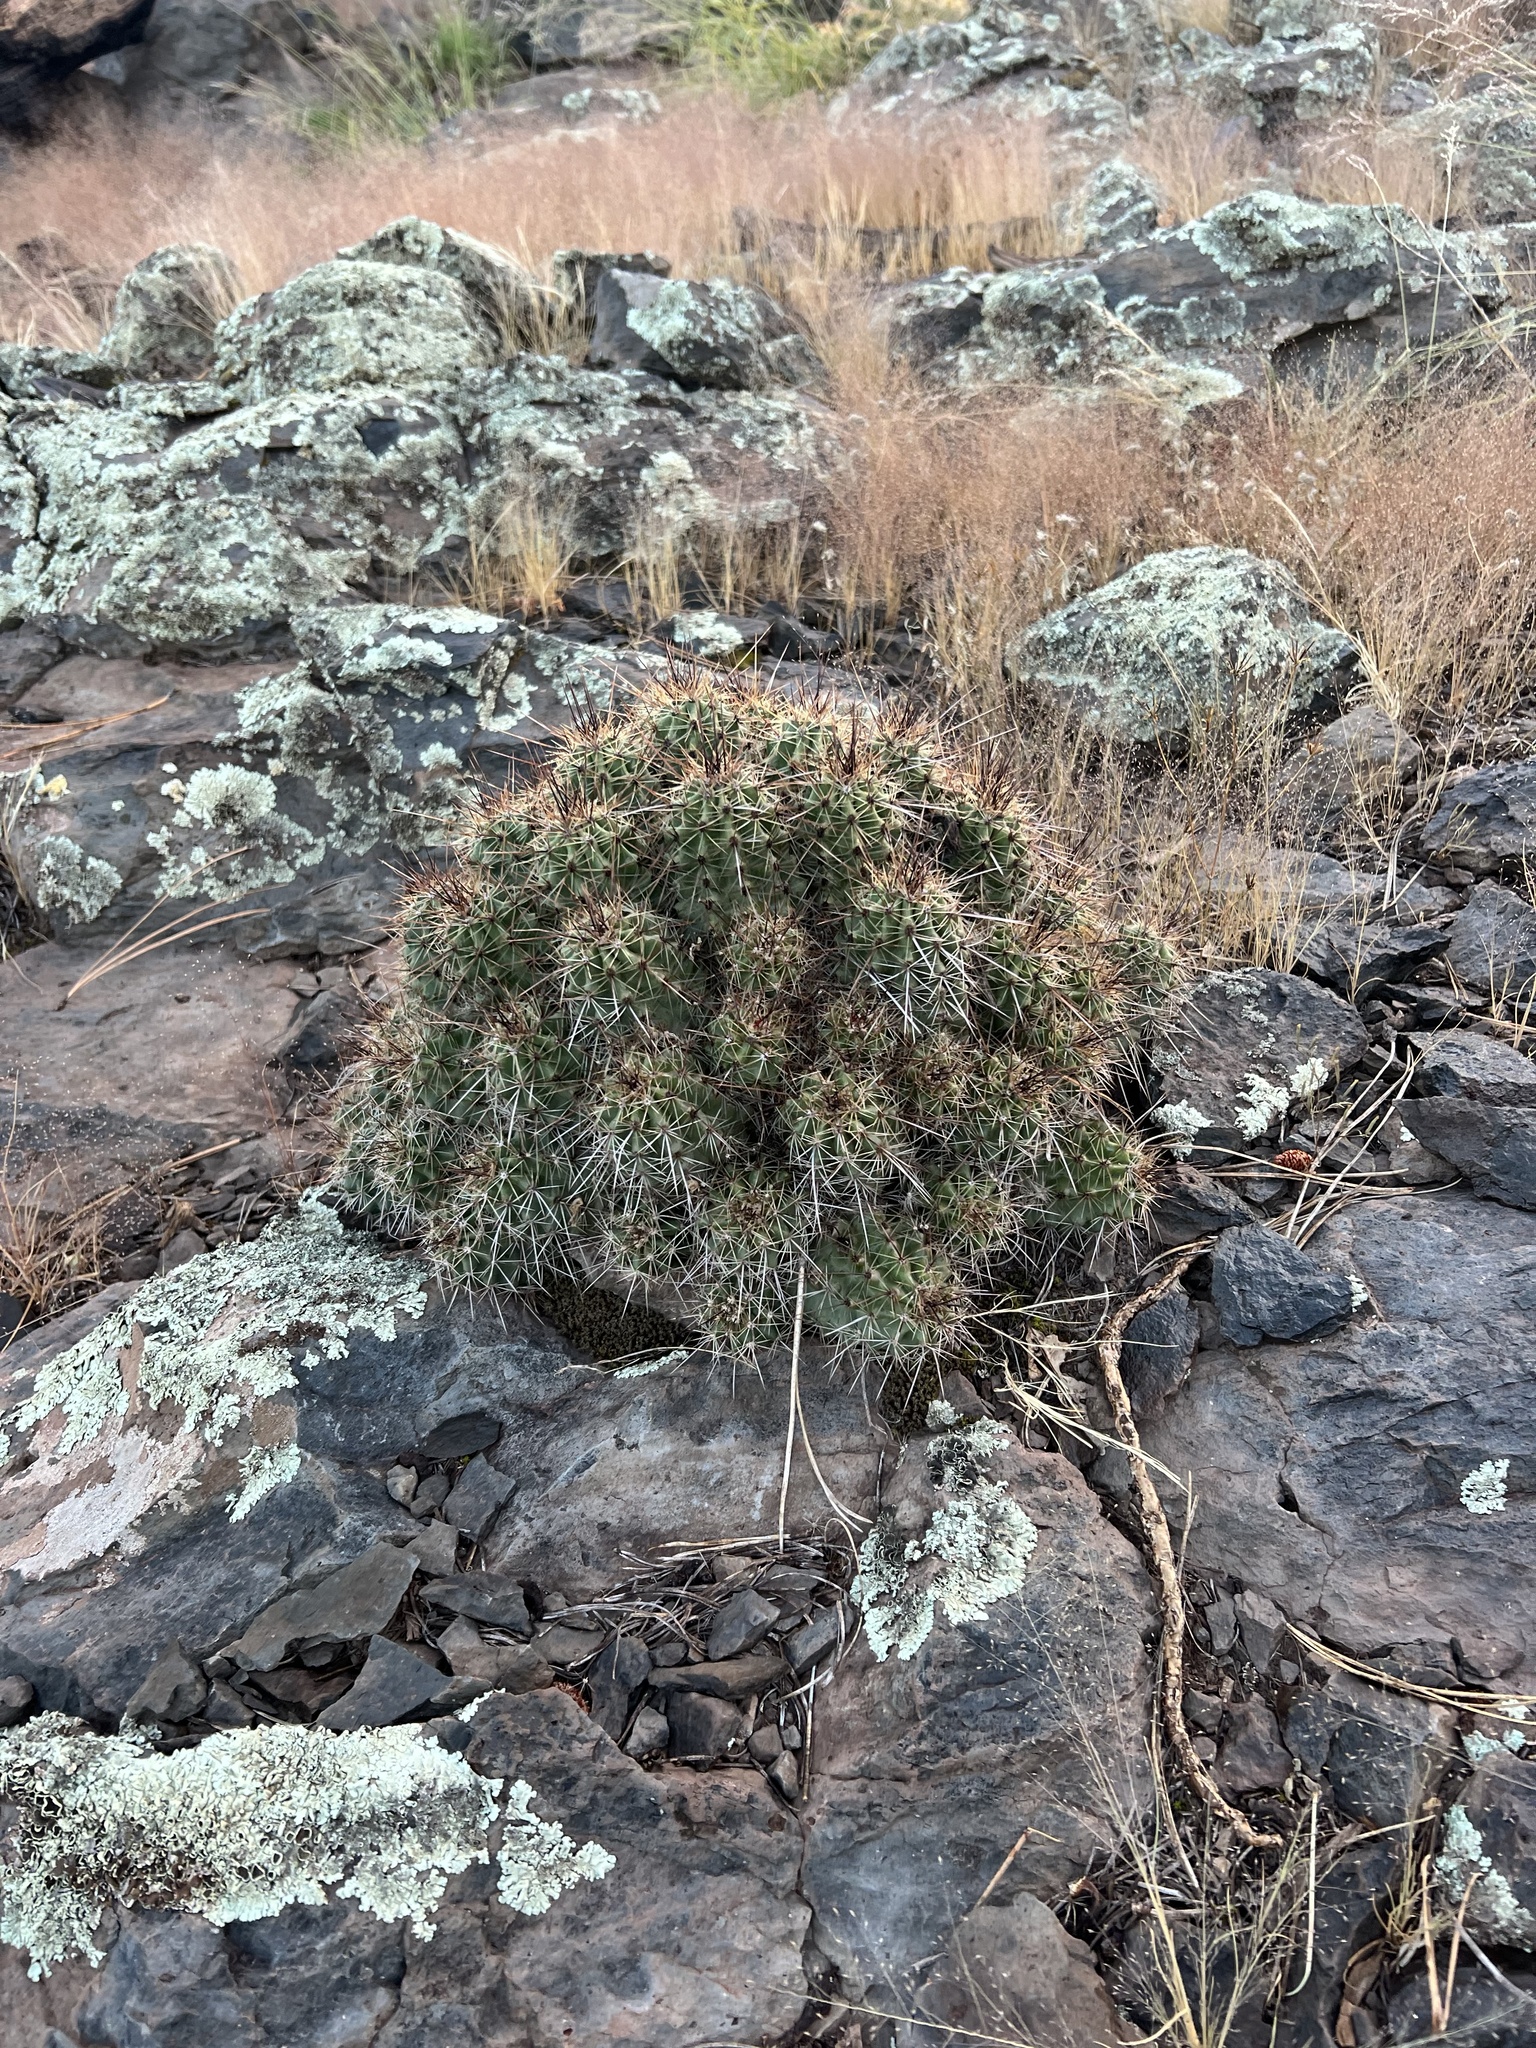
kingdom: Plantae
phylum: Tracheophyta
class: Magnoliopsida
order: Caryophyllales
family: Cactaceae
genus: Echinocereus
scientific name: Echinocereus bakeri
